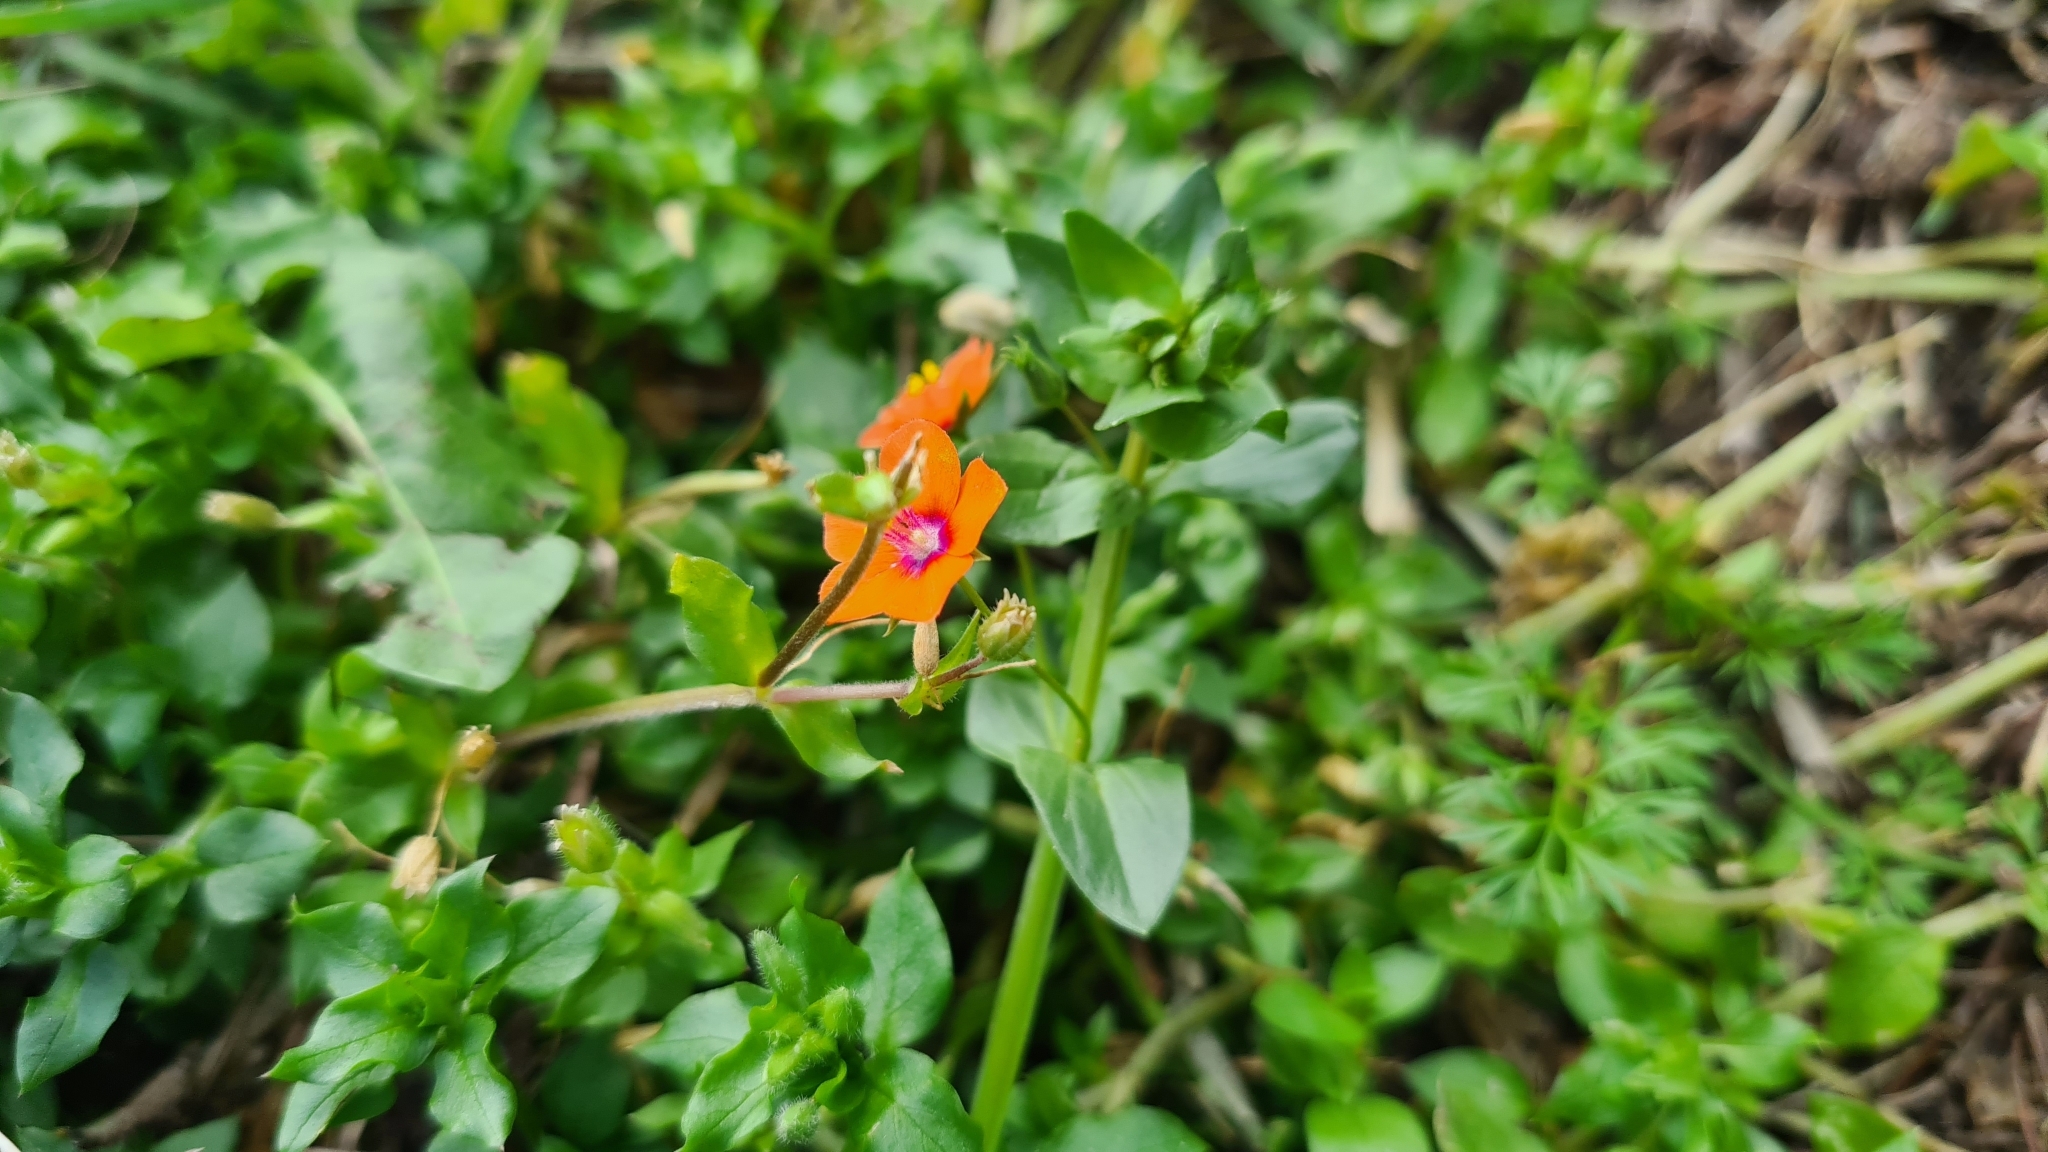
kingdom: Plantae
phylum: Tracheophyta
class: Magnoliopsida
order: Ericales
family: Primulaceae
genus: Lysimachia
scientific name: Lysimachia arvensis
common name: Scarlet pimpernel
